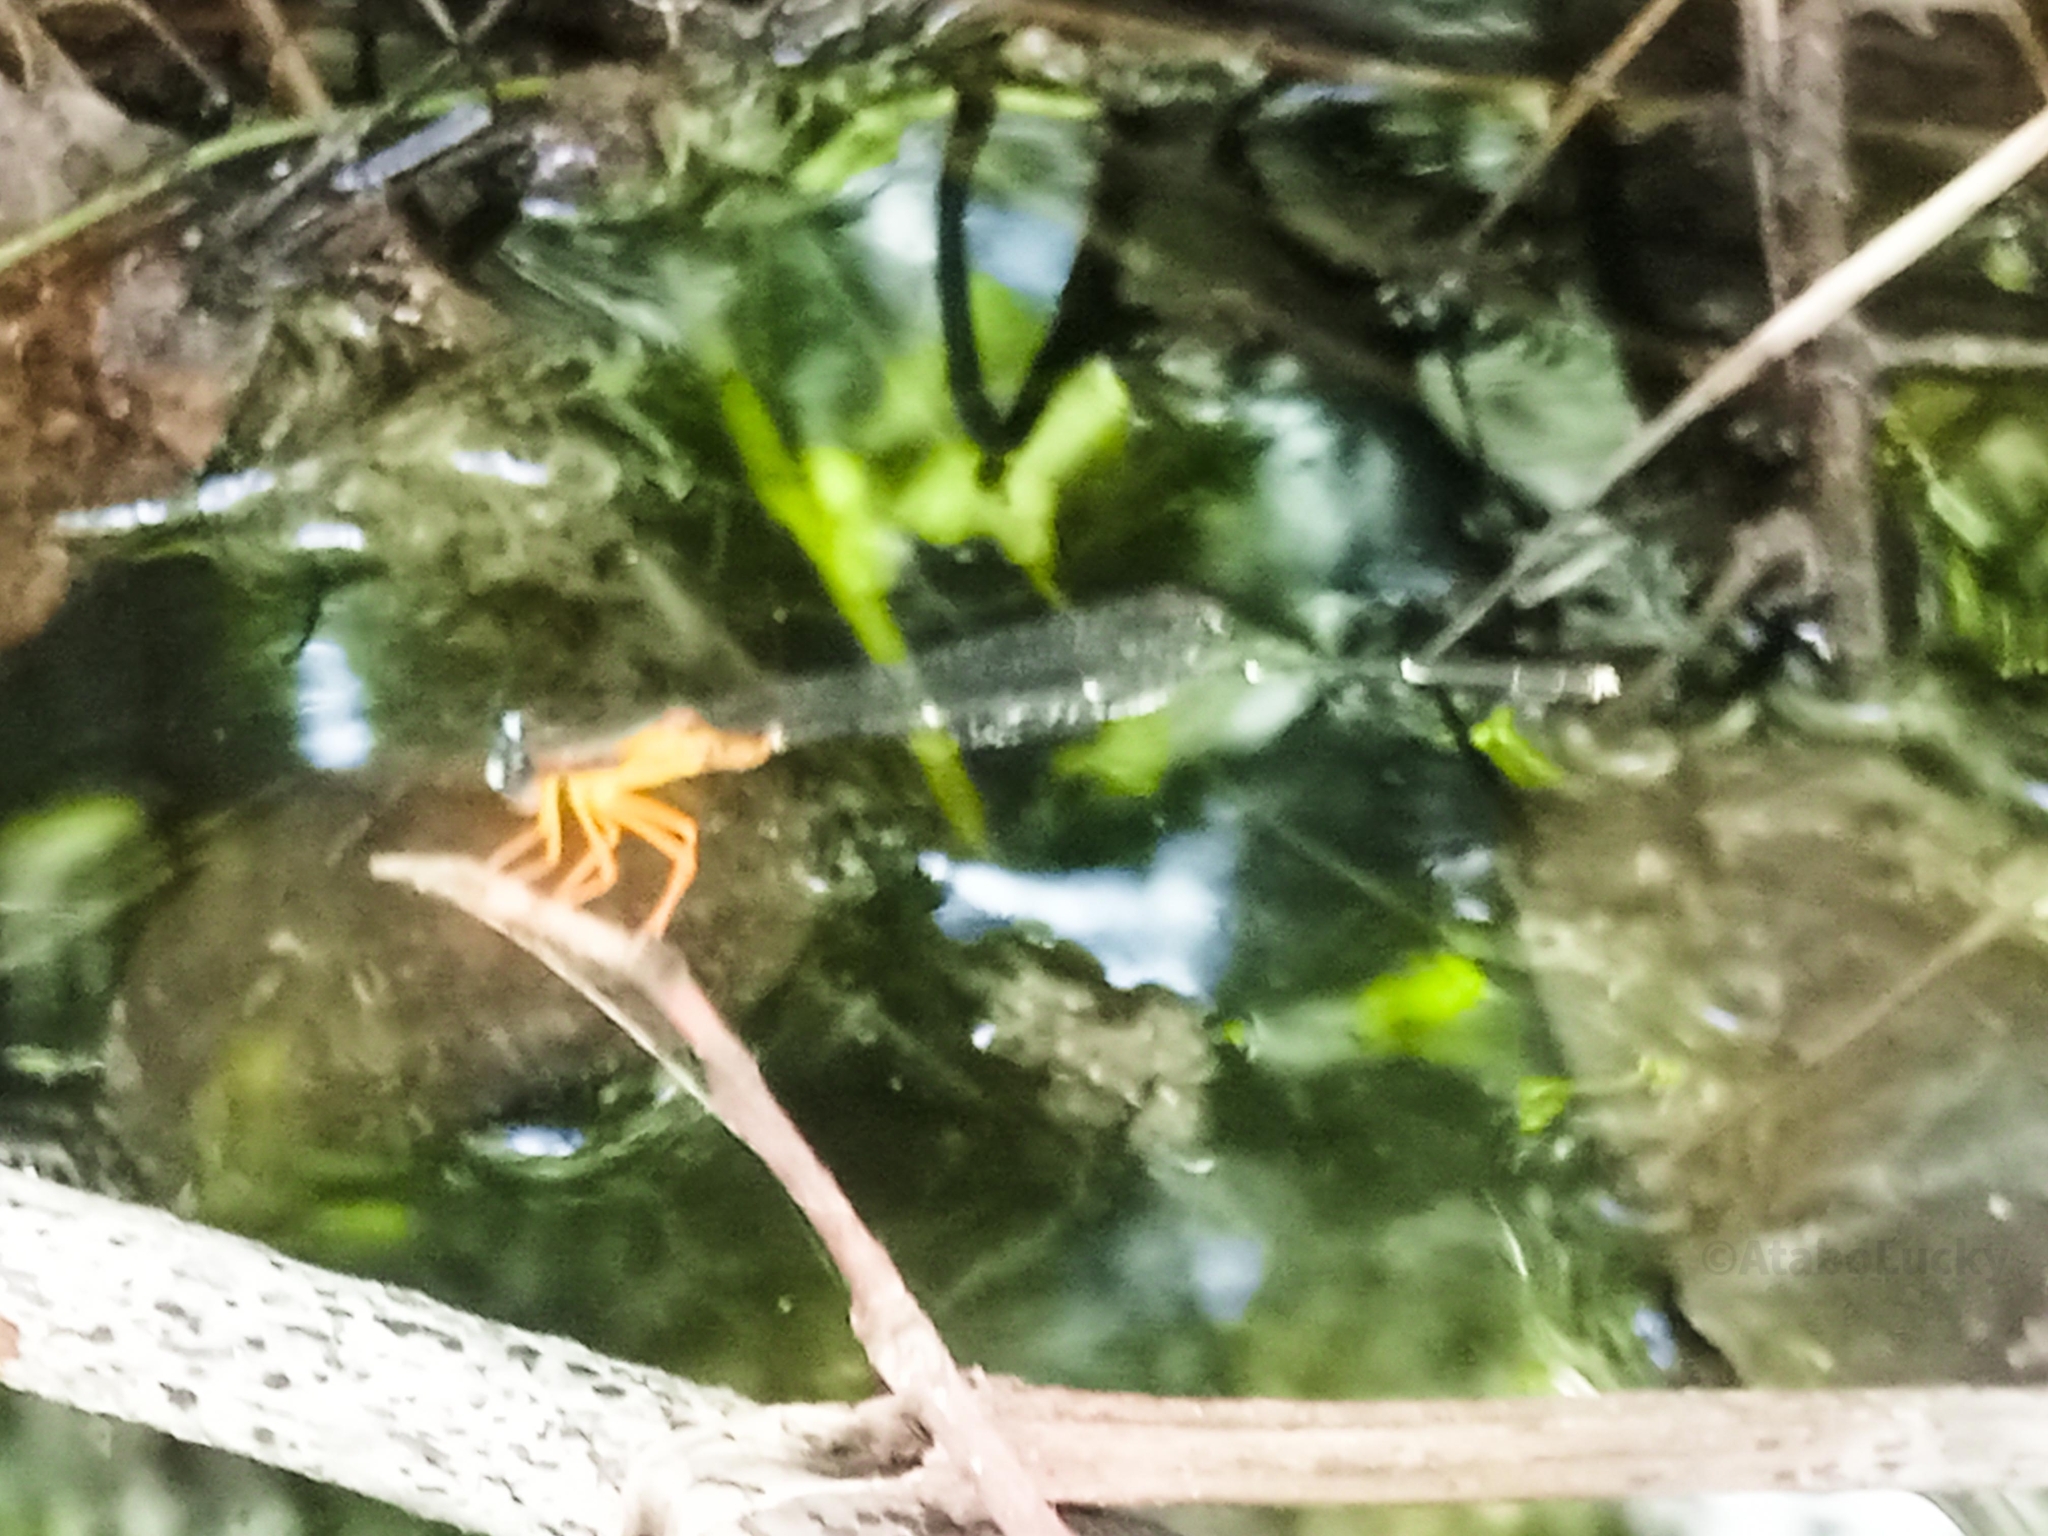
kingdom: Animalia
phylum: Arthropoda
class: Insecta
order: Odonata
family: Platycnemididae
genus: Copera
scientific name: Copera sikassoensis
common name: Little featherleg
